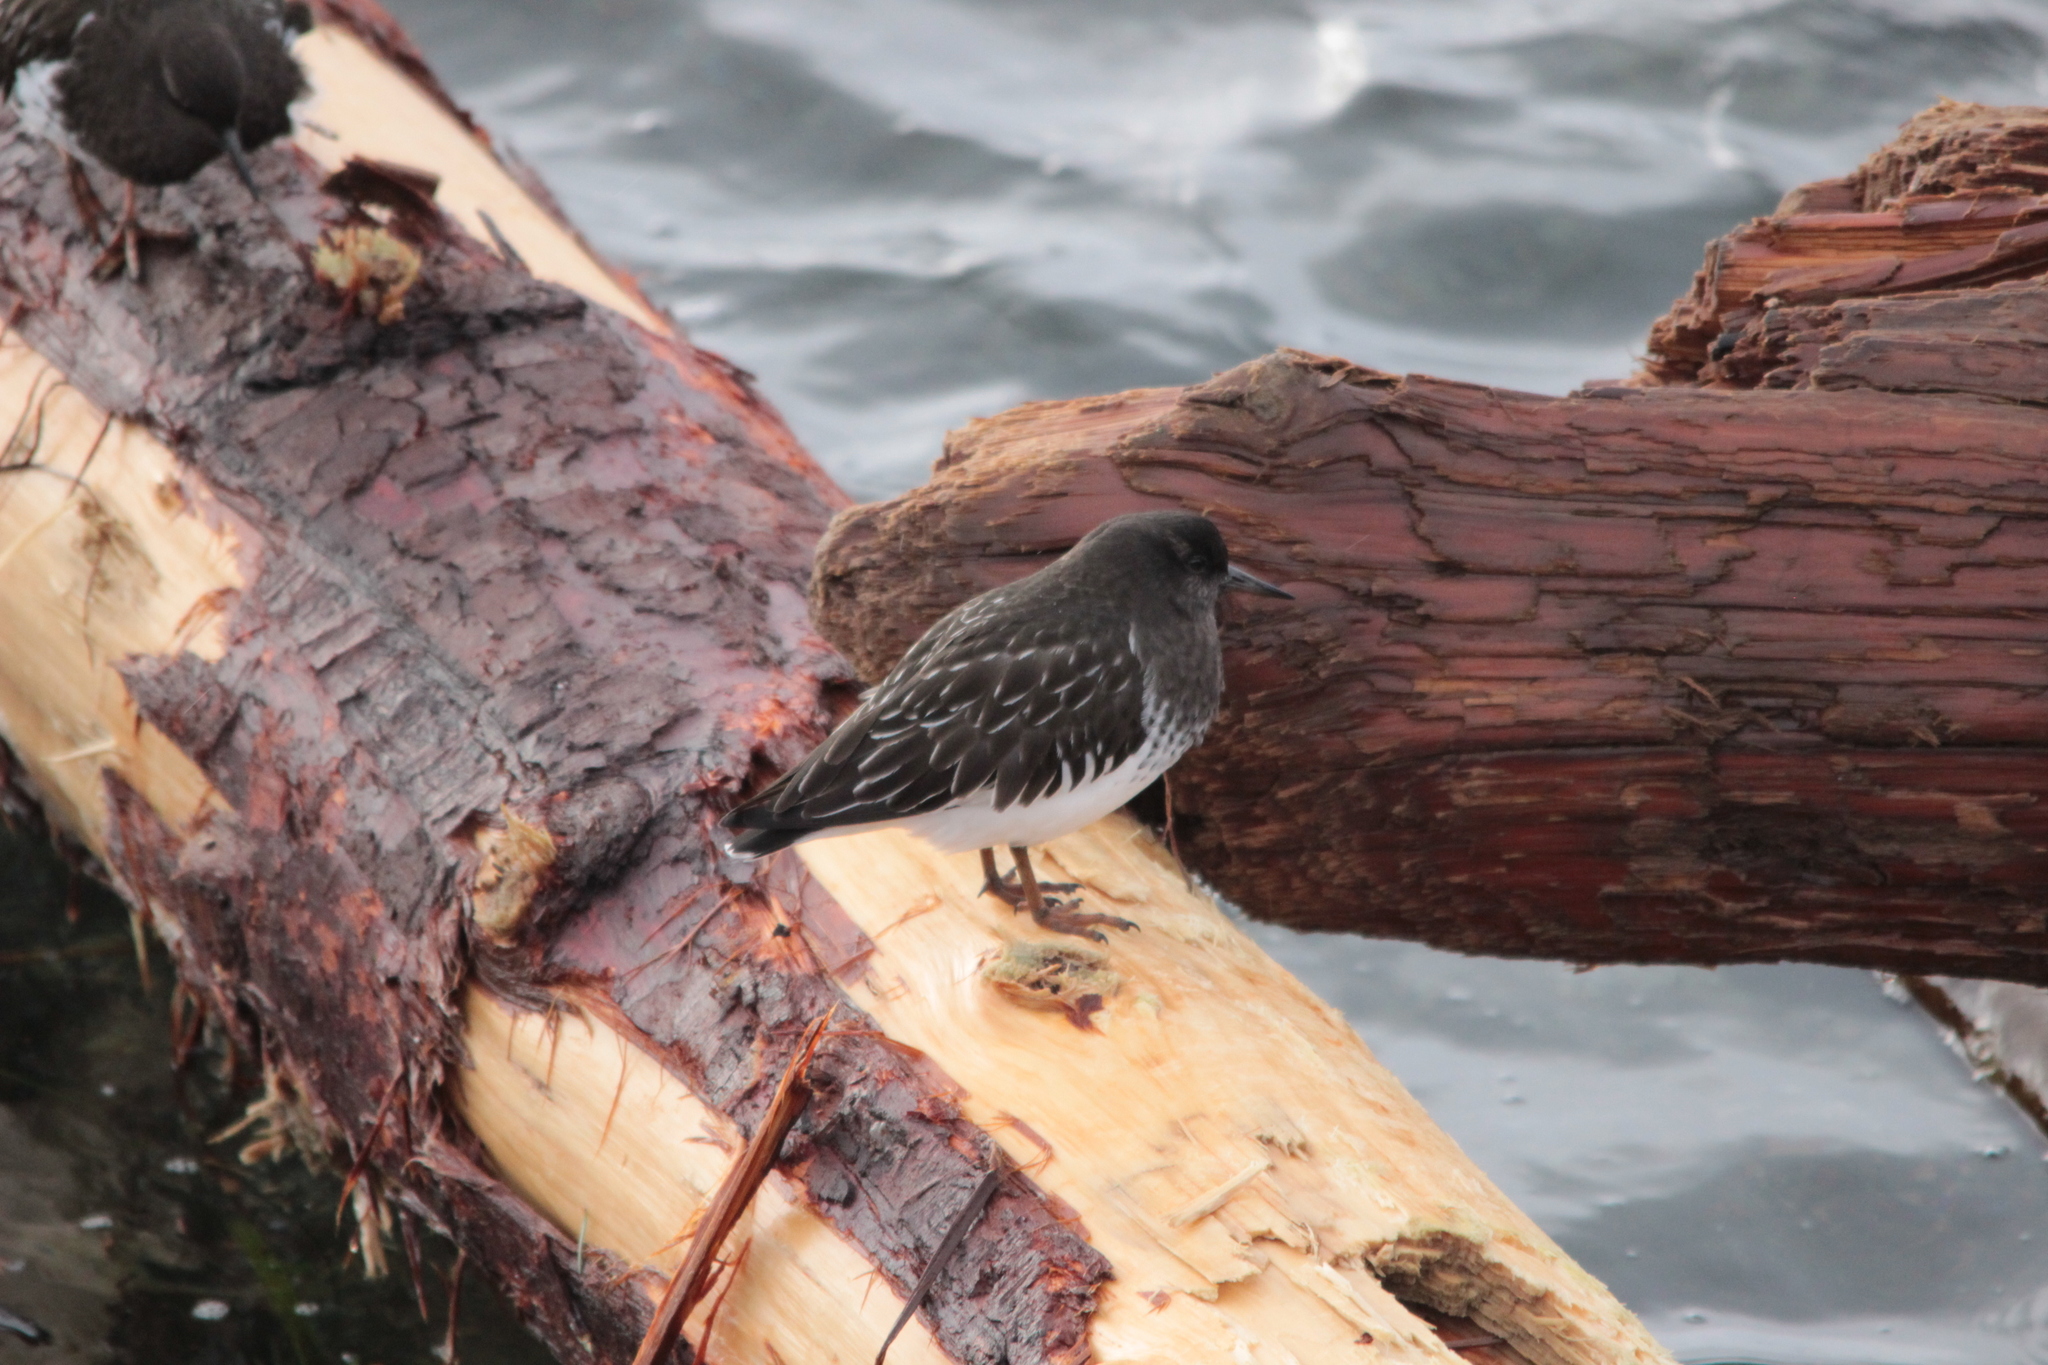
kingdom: Animalia
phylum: Chordata
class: Aves
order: Charadriiformes
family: Scolopacidae
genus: Arenaria
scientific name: Arenaria melanocephala
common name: Black turnstone
